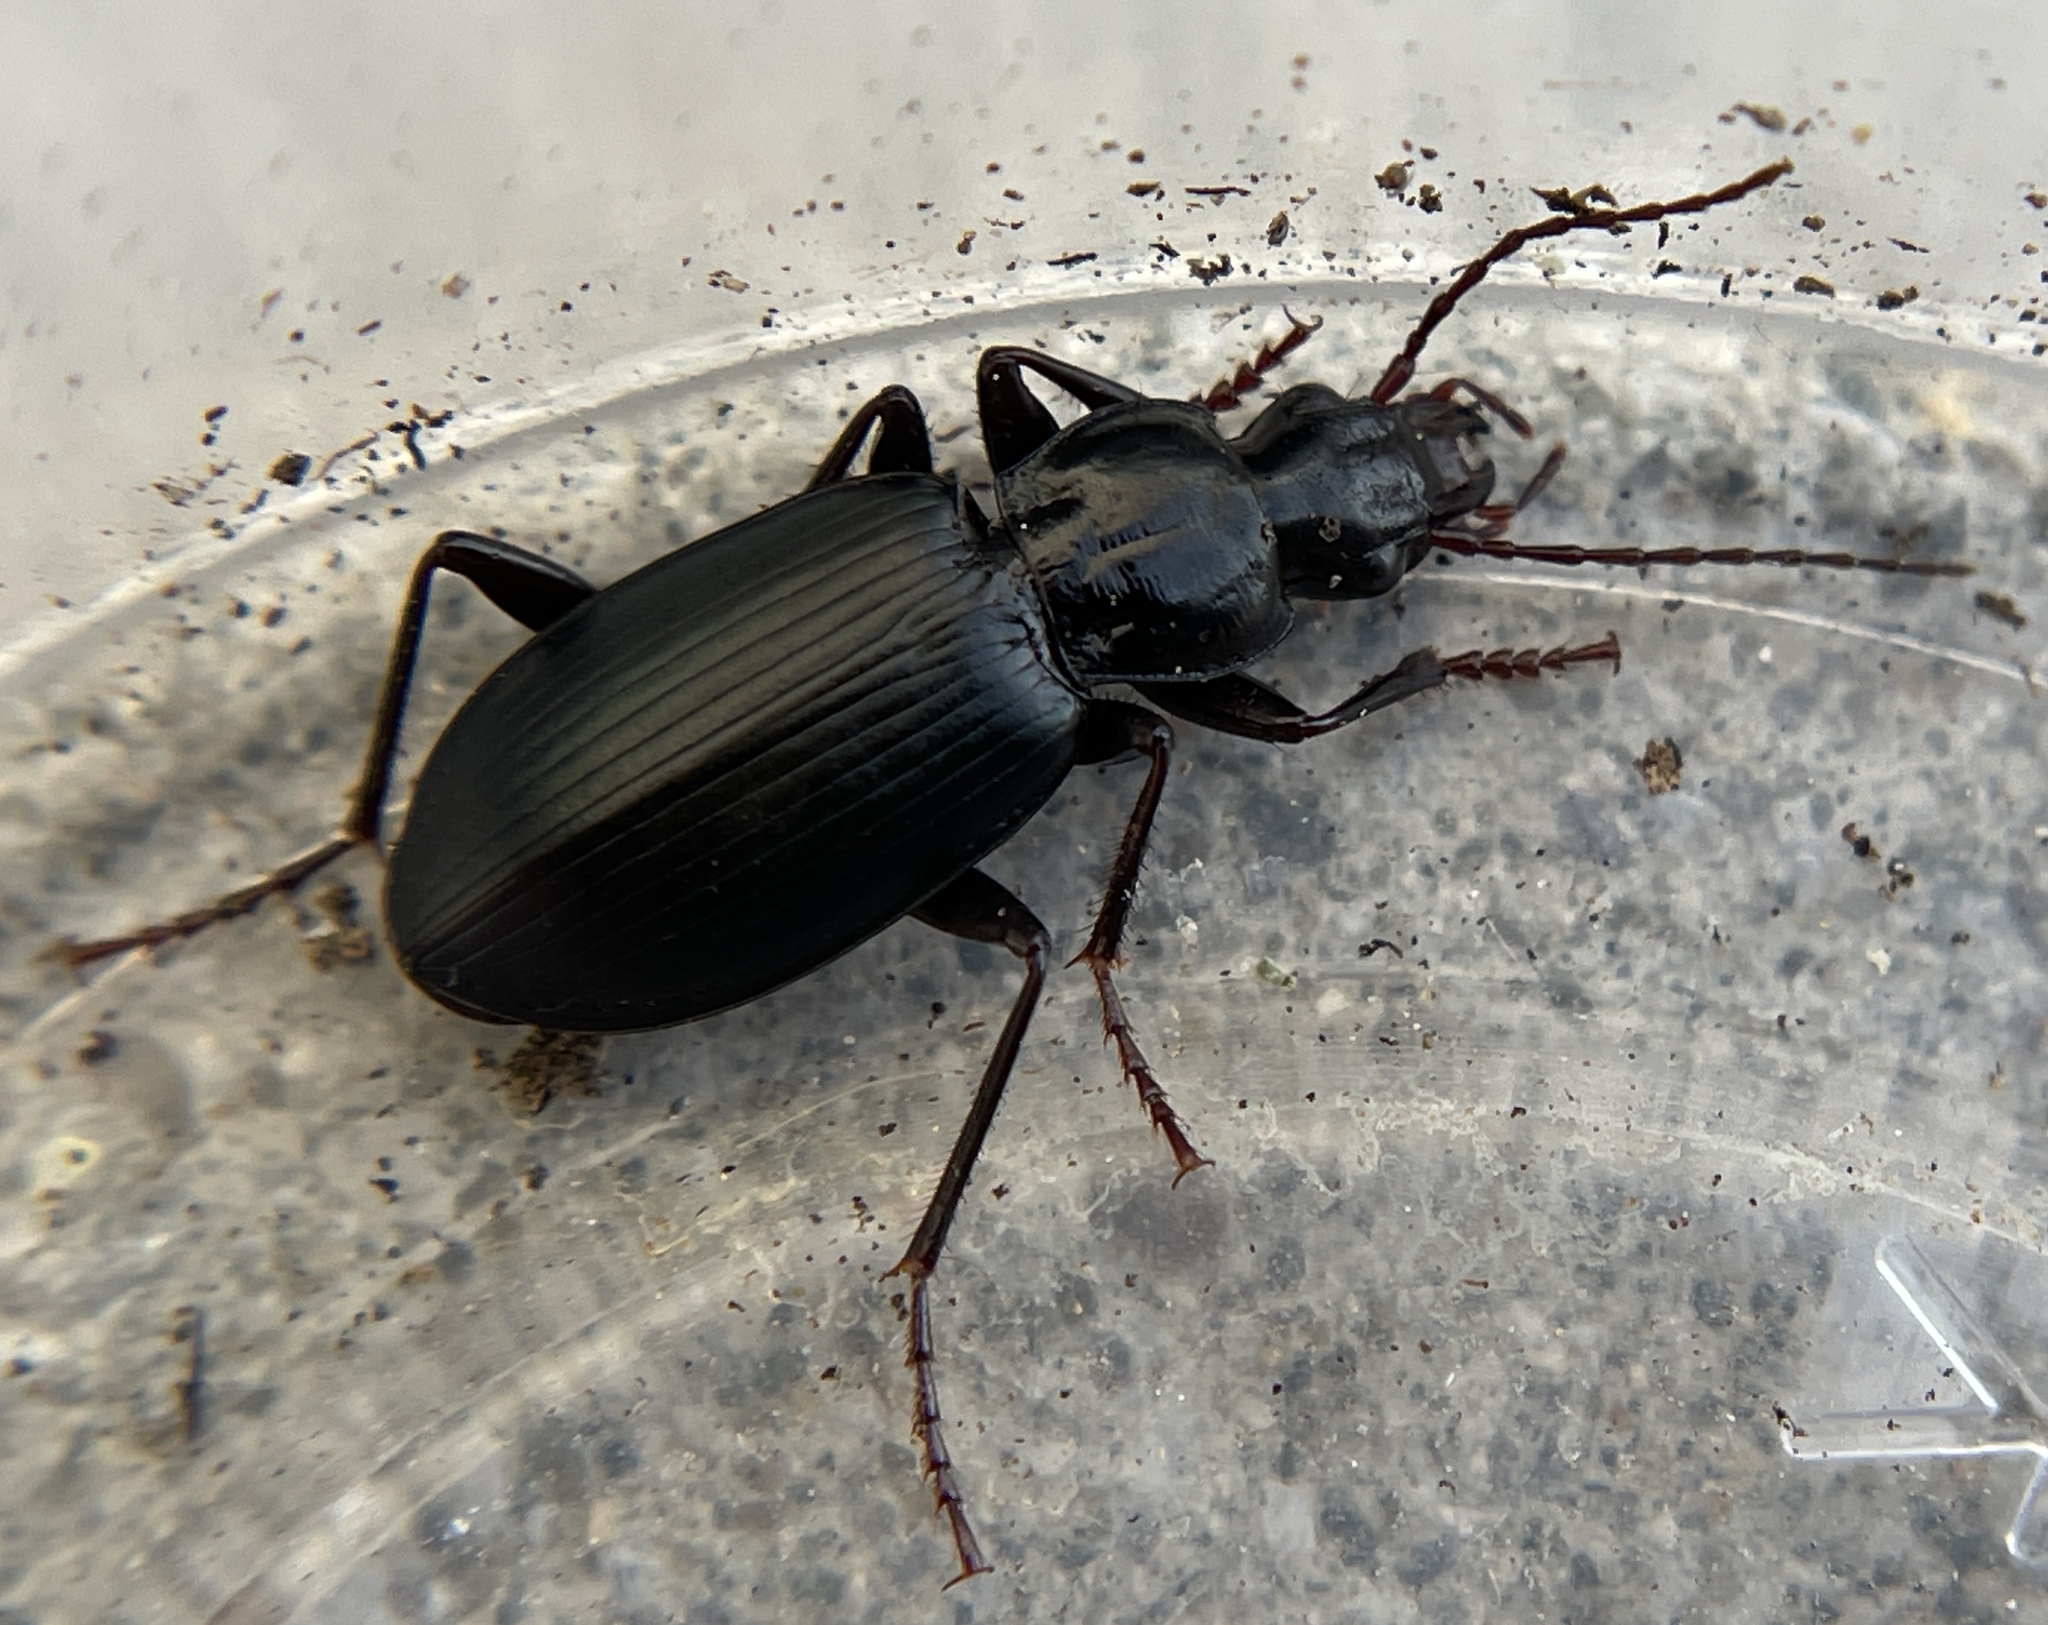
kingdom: Animalia
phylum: Arthropoda
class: Insecta
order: Coleoptera
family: Carabidae
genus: Laemostenus
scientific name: Laemostenus complanatus
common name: Cosmopolitan ground beetle
